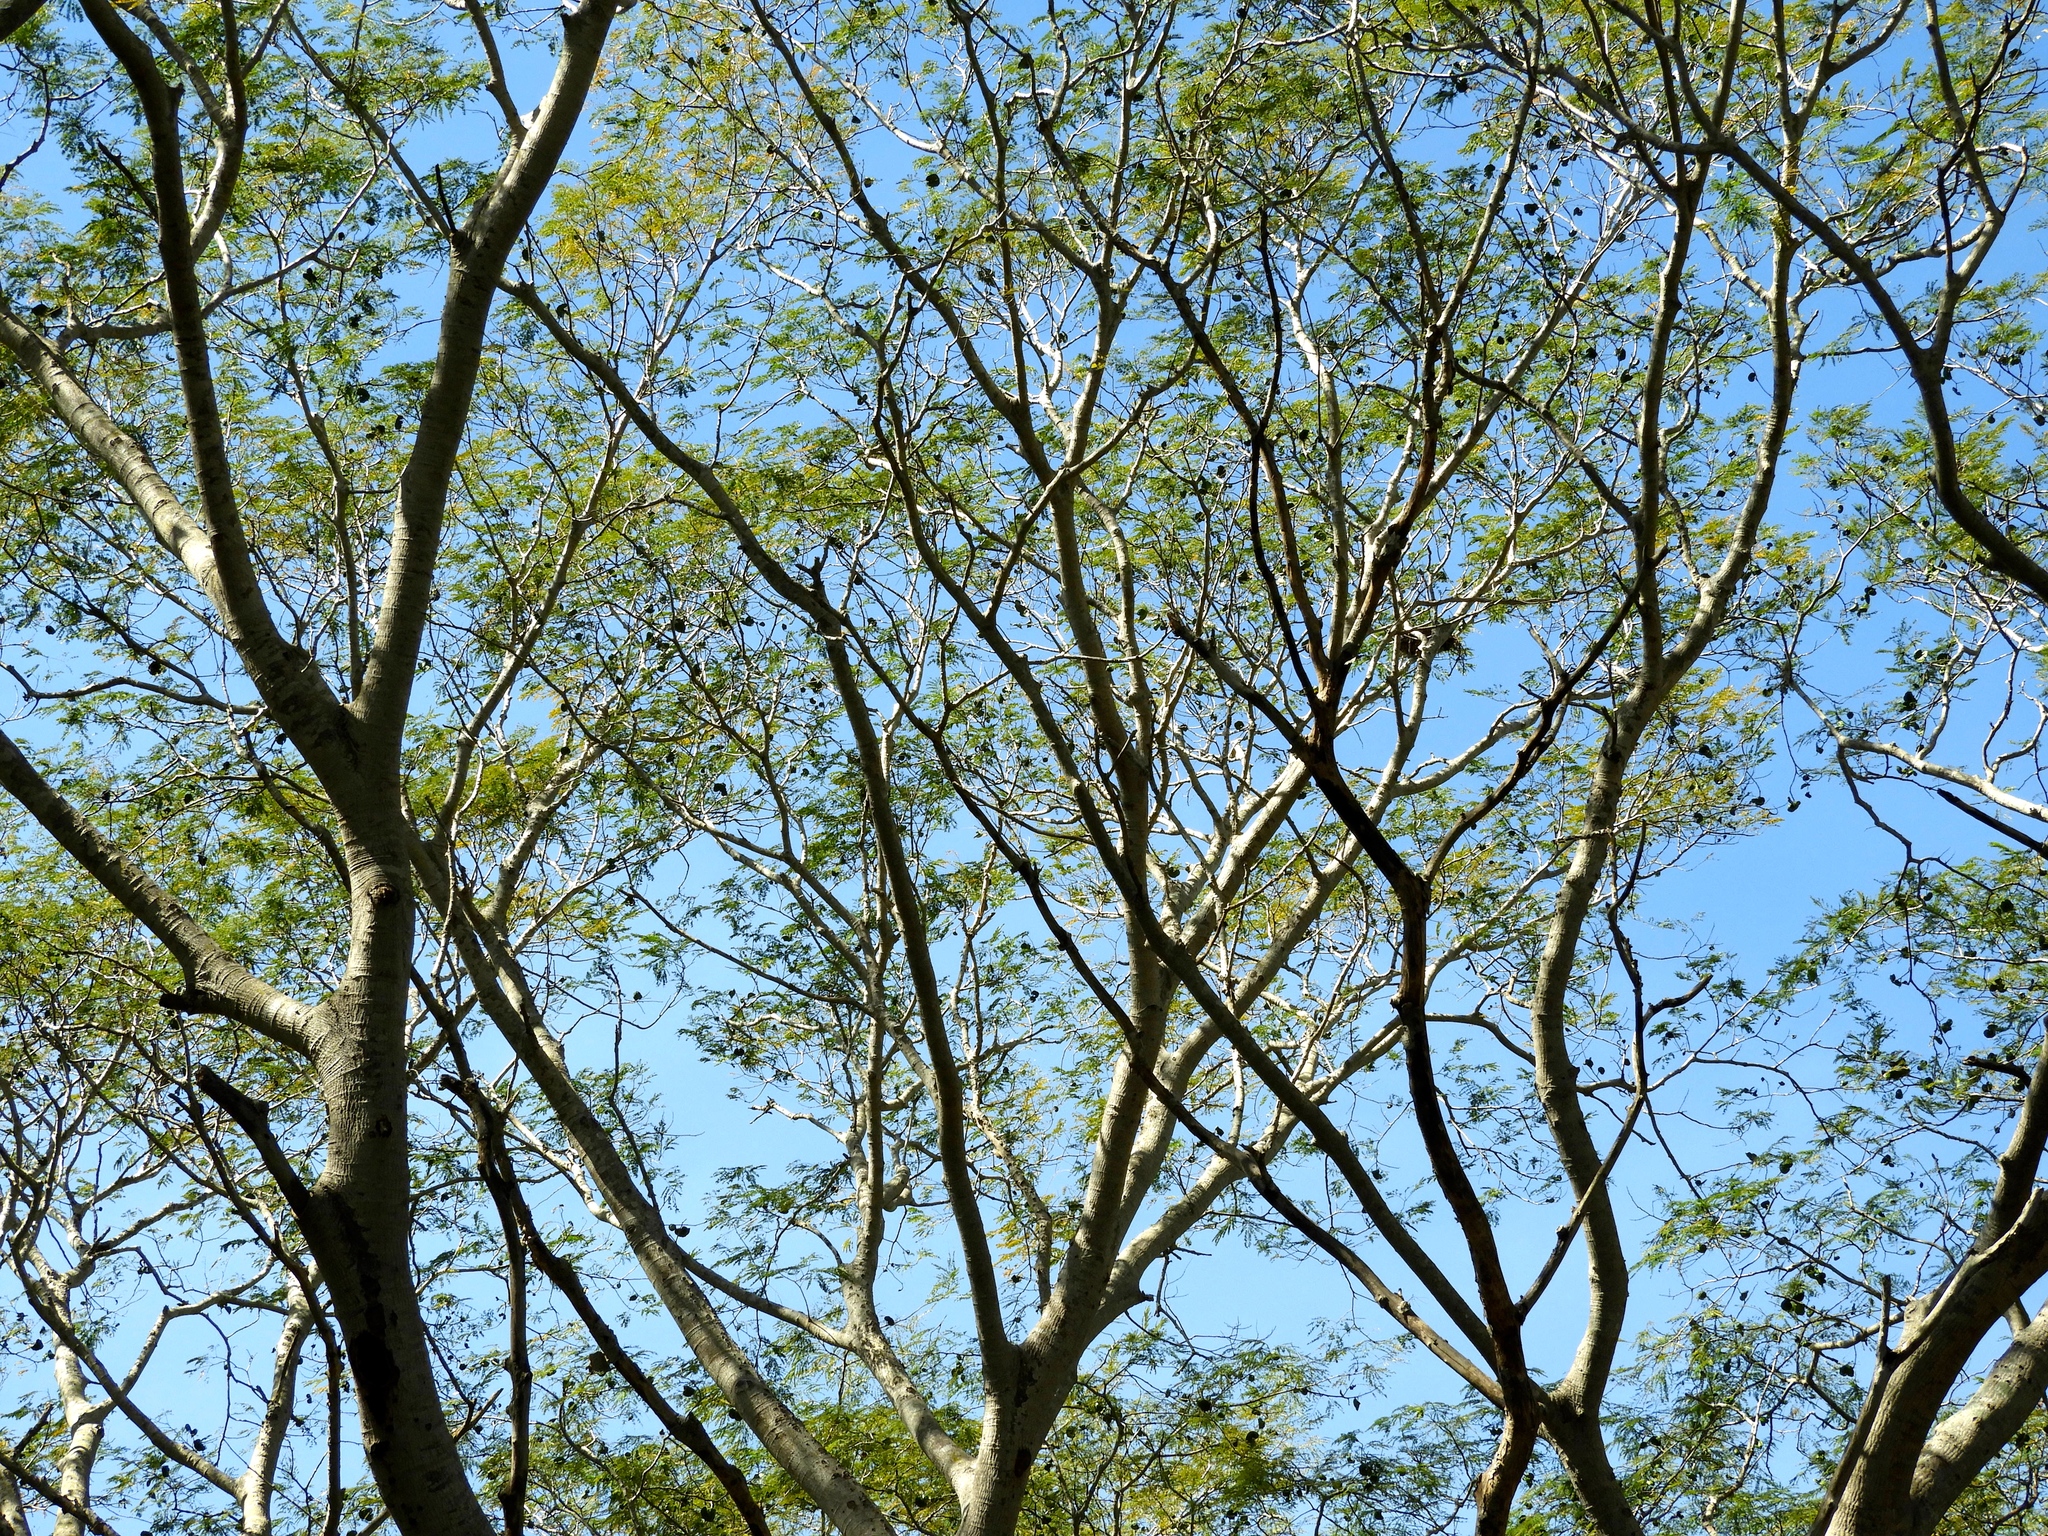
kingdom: Plantae
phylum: Tracheophyta
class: Magnoliopsida
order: Fabales
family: Fabaceae
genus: Enterolobium
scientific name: Enterolobium cyclocarpum
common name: Ear tree
